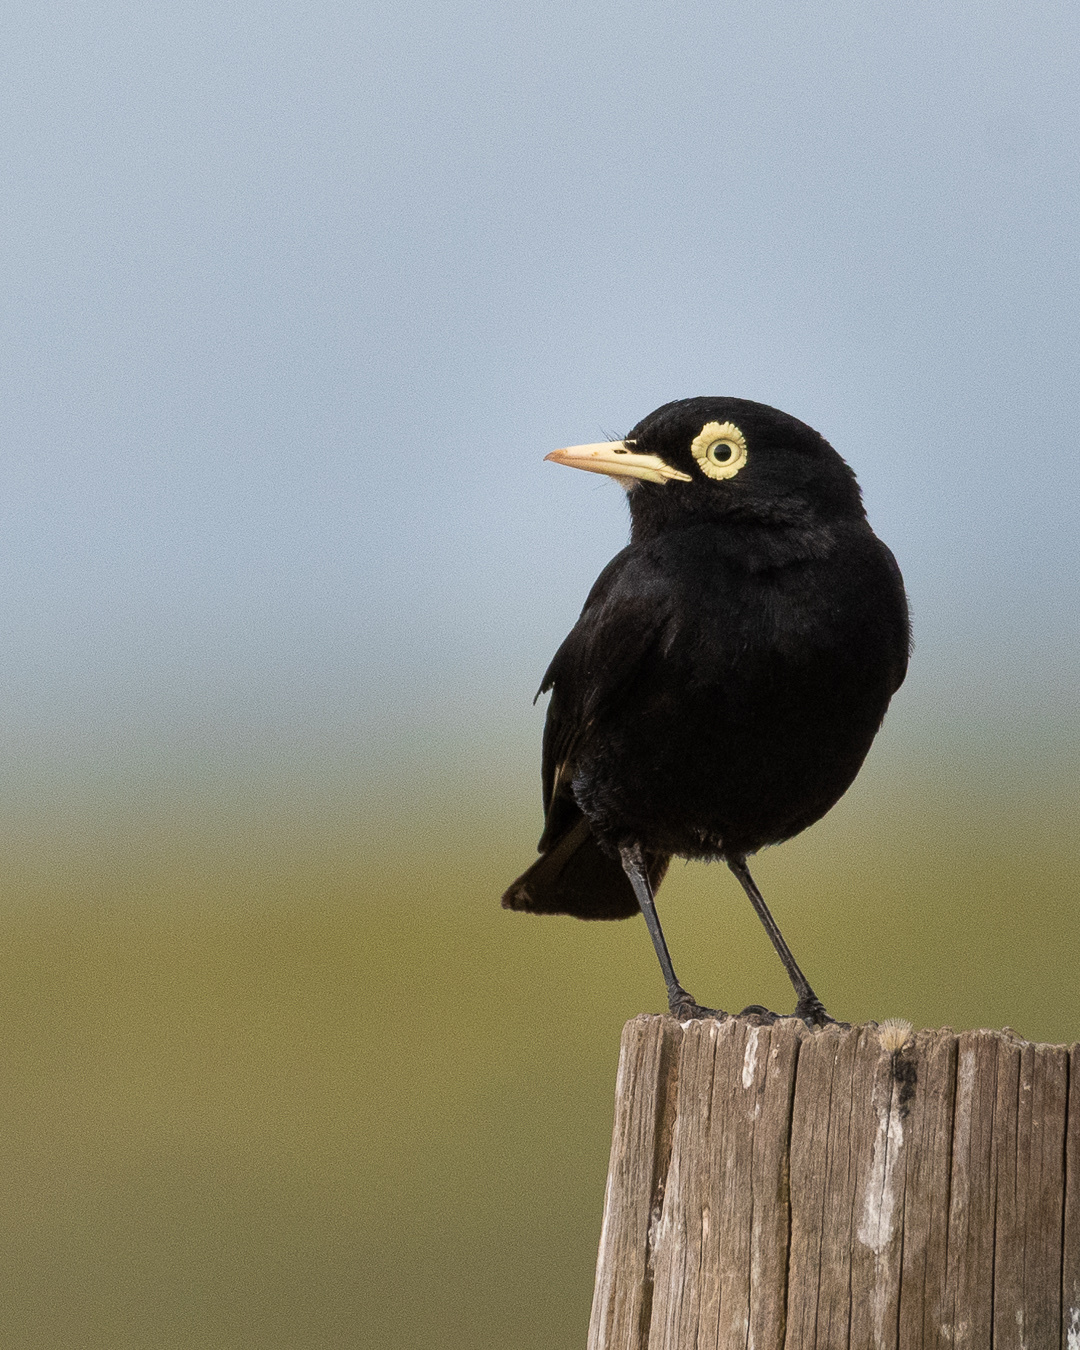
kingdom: Animalia
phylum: Chordata
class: Aves
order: Passeriformes
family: Tyrannidae
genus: Hymenops
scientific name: Hymenops perspicillatus
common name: Spectacled tyrant
